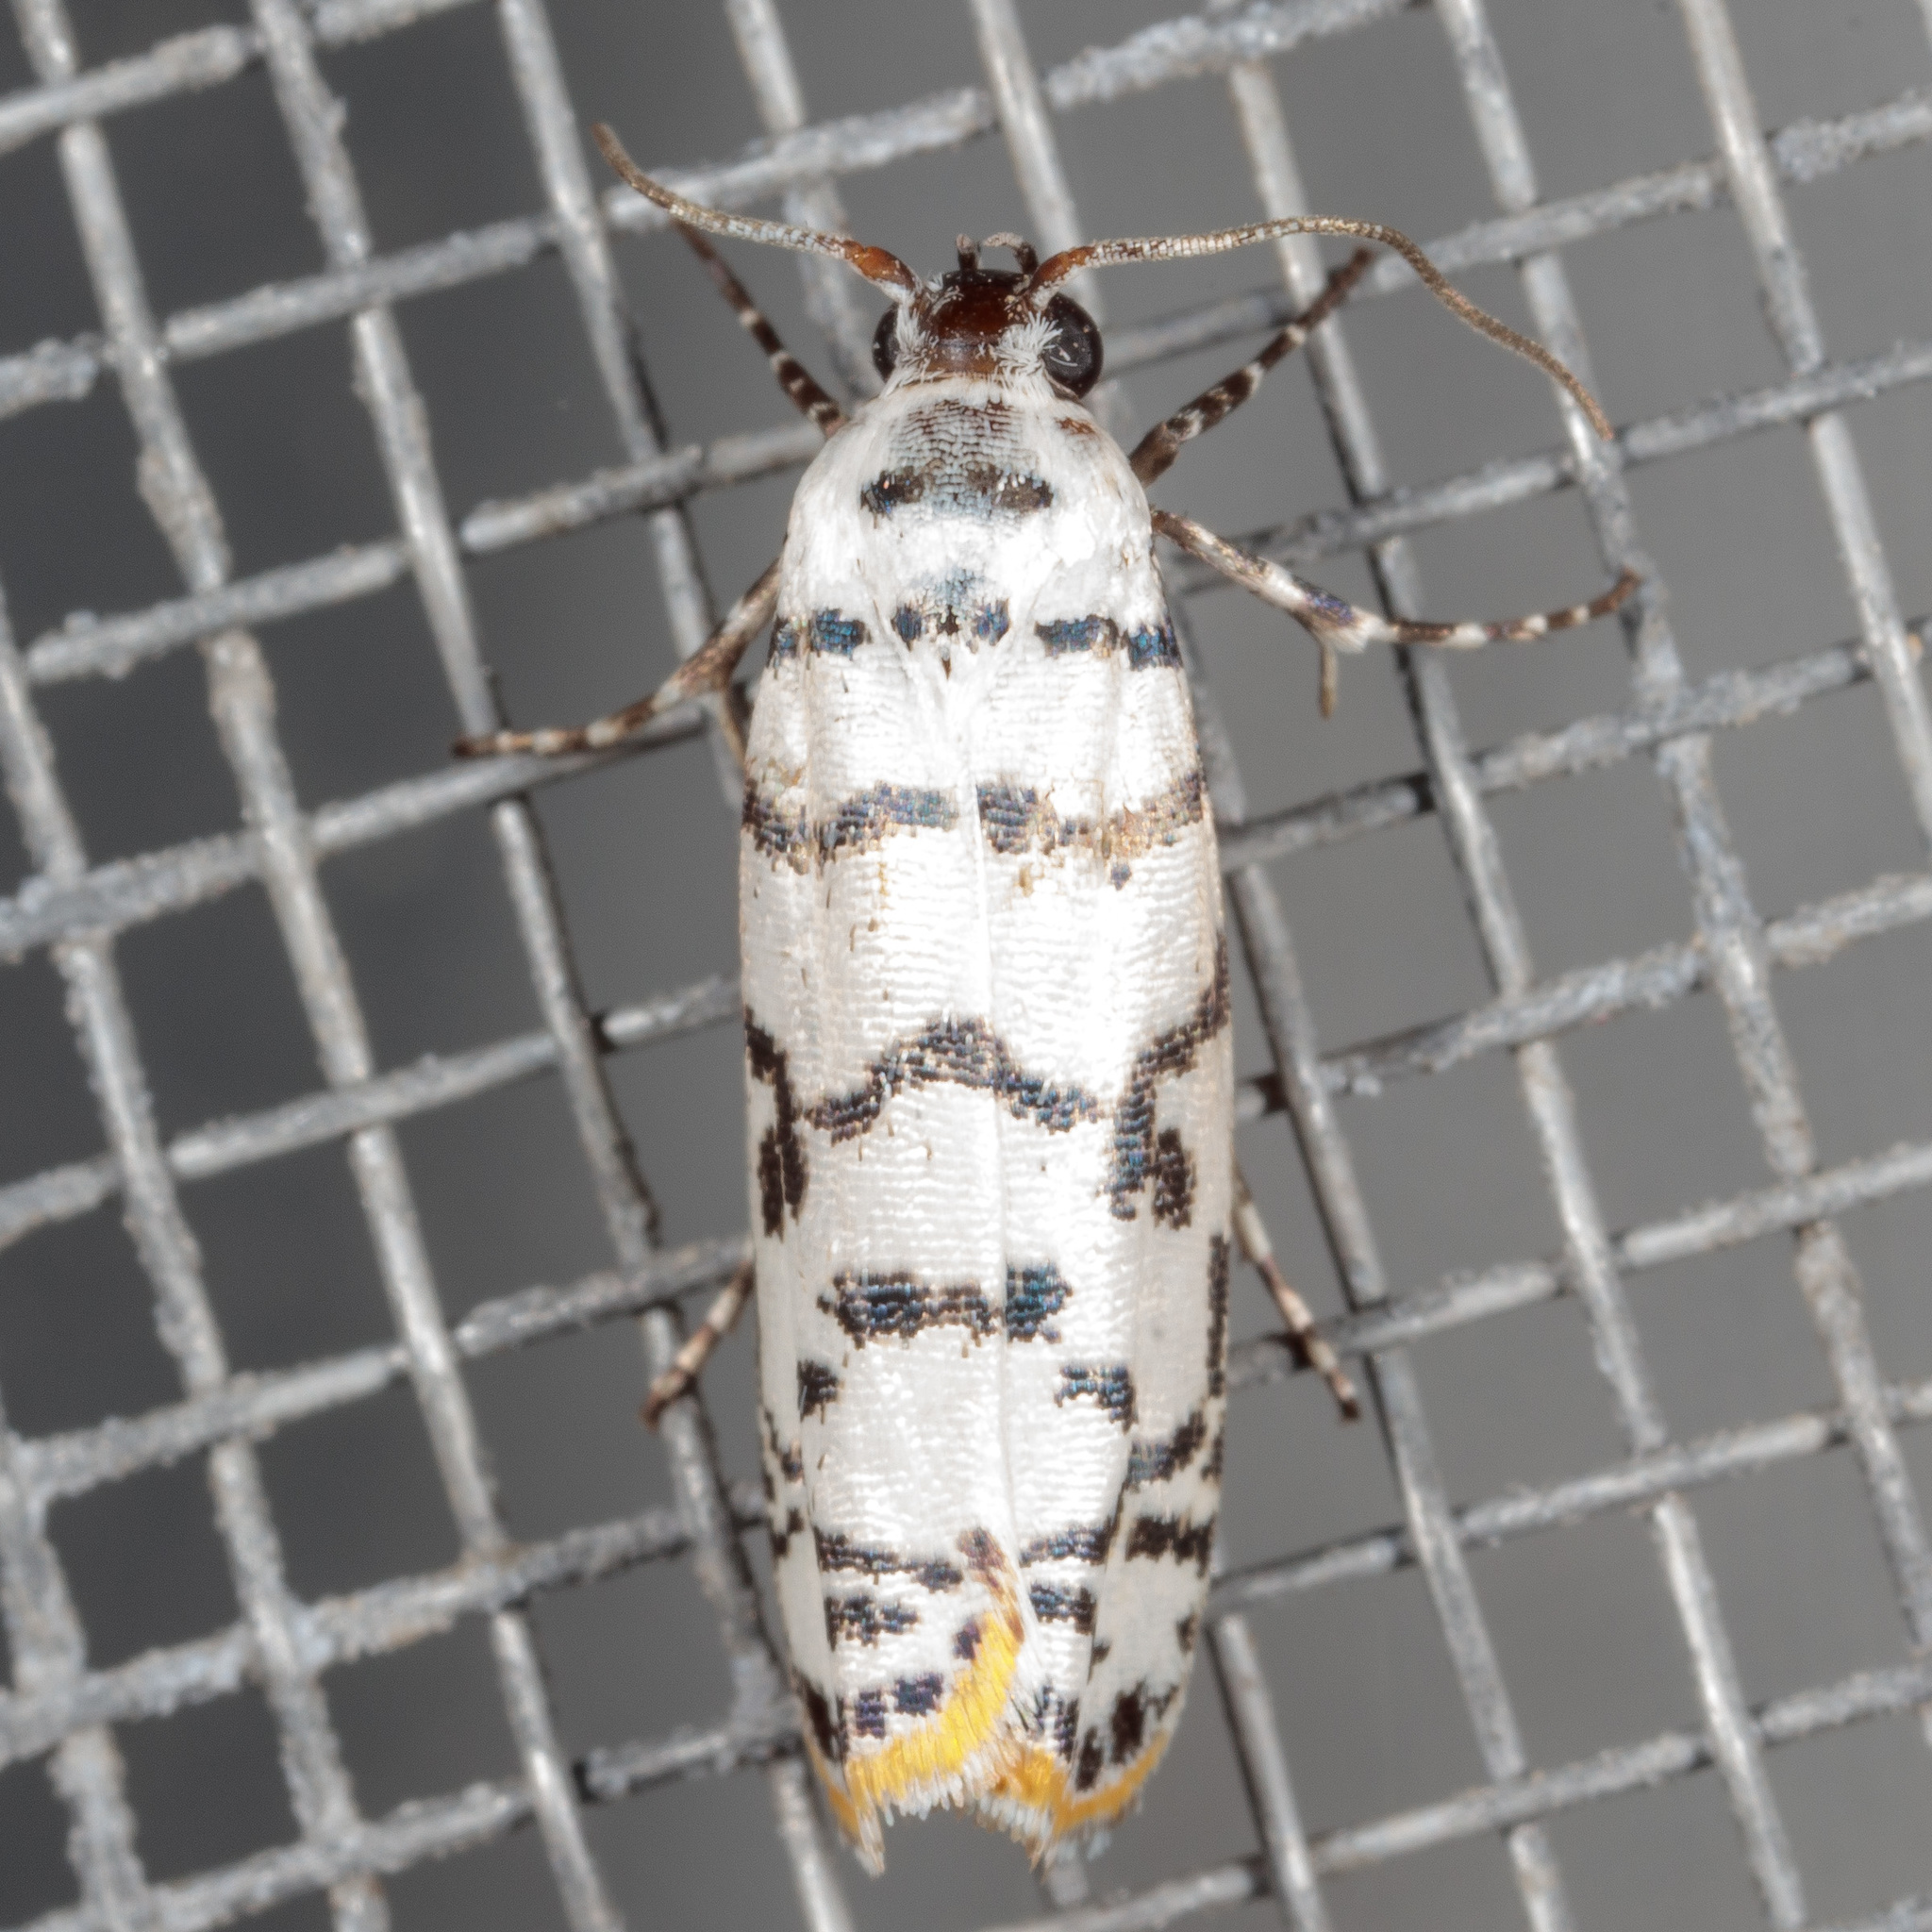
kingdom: Animalia
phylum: Arthropoda
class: Insecta
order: Lepidoptera
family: Ethmiidae
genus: Ethmia
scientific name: Ethmia delliella
